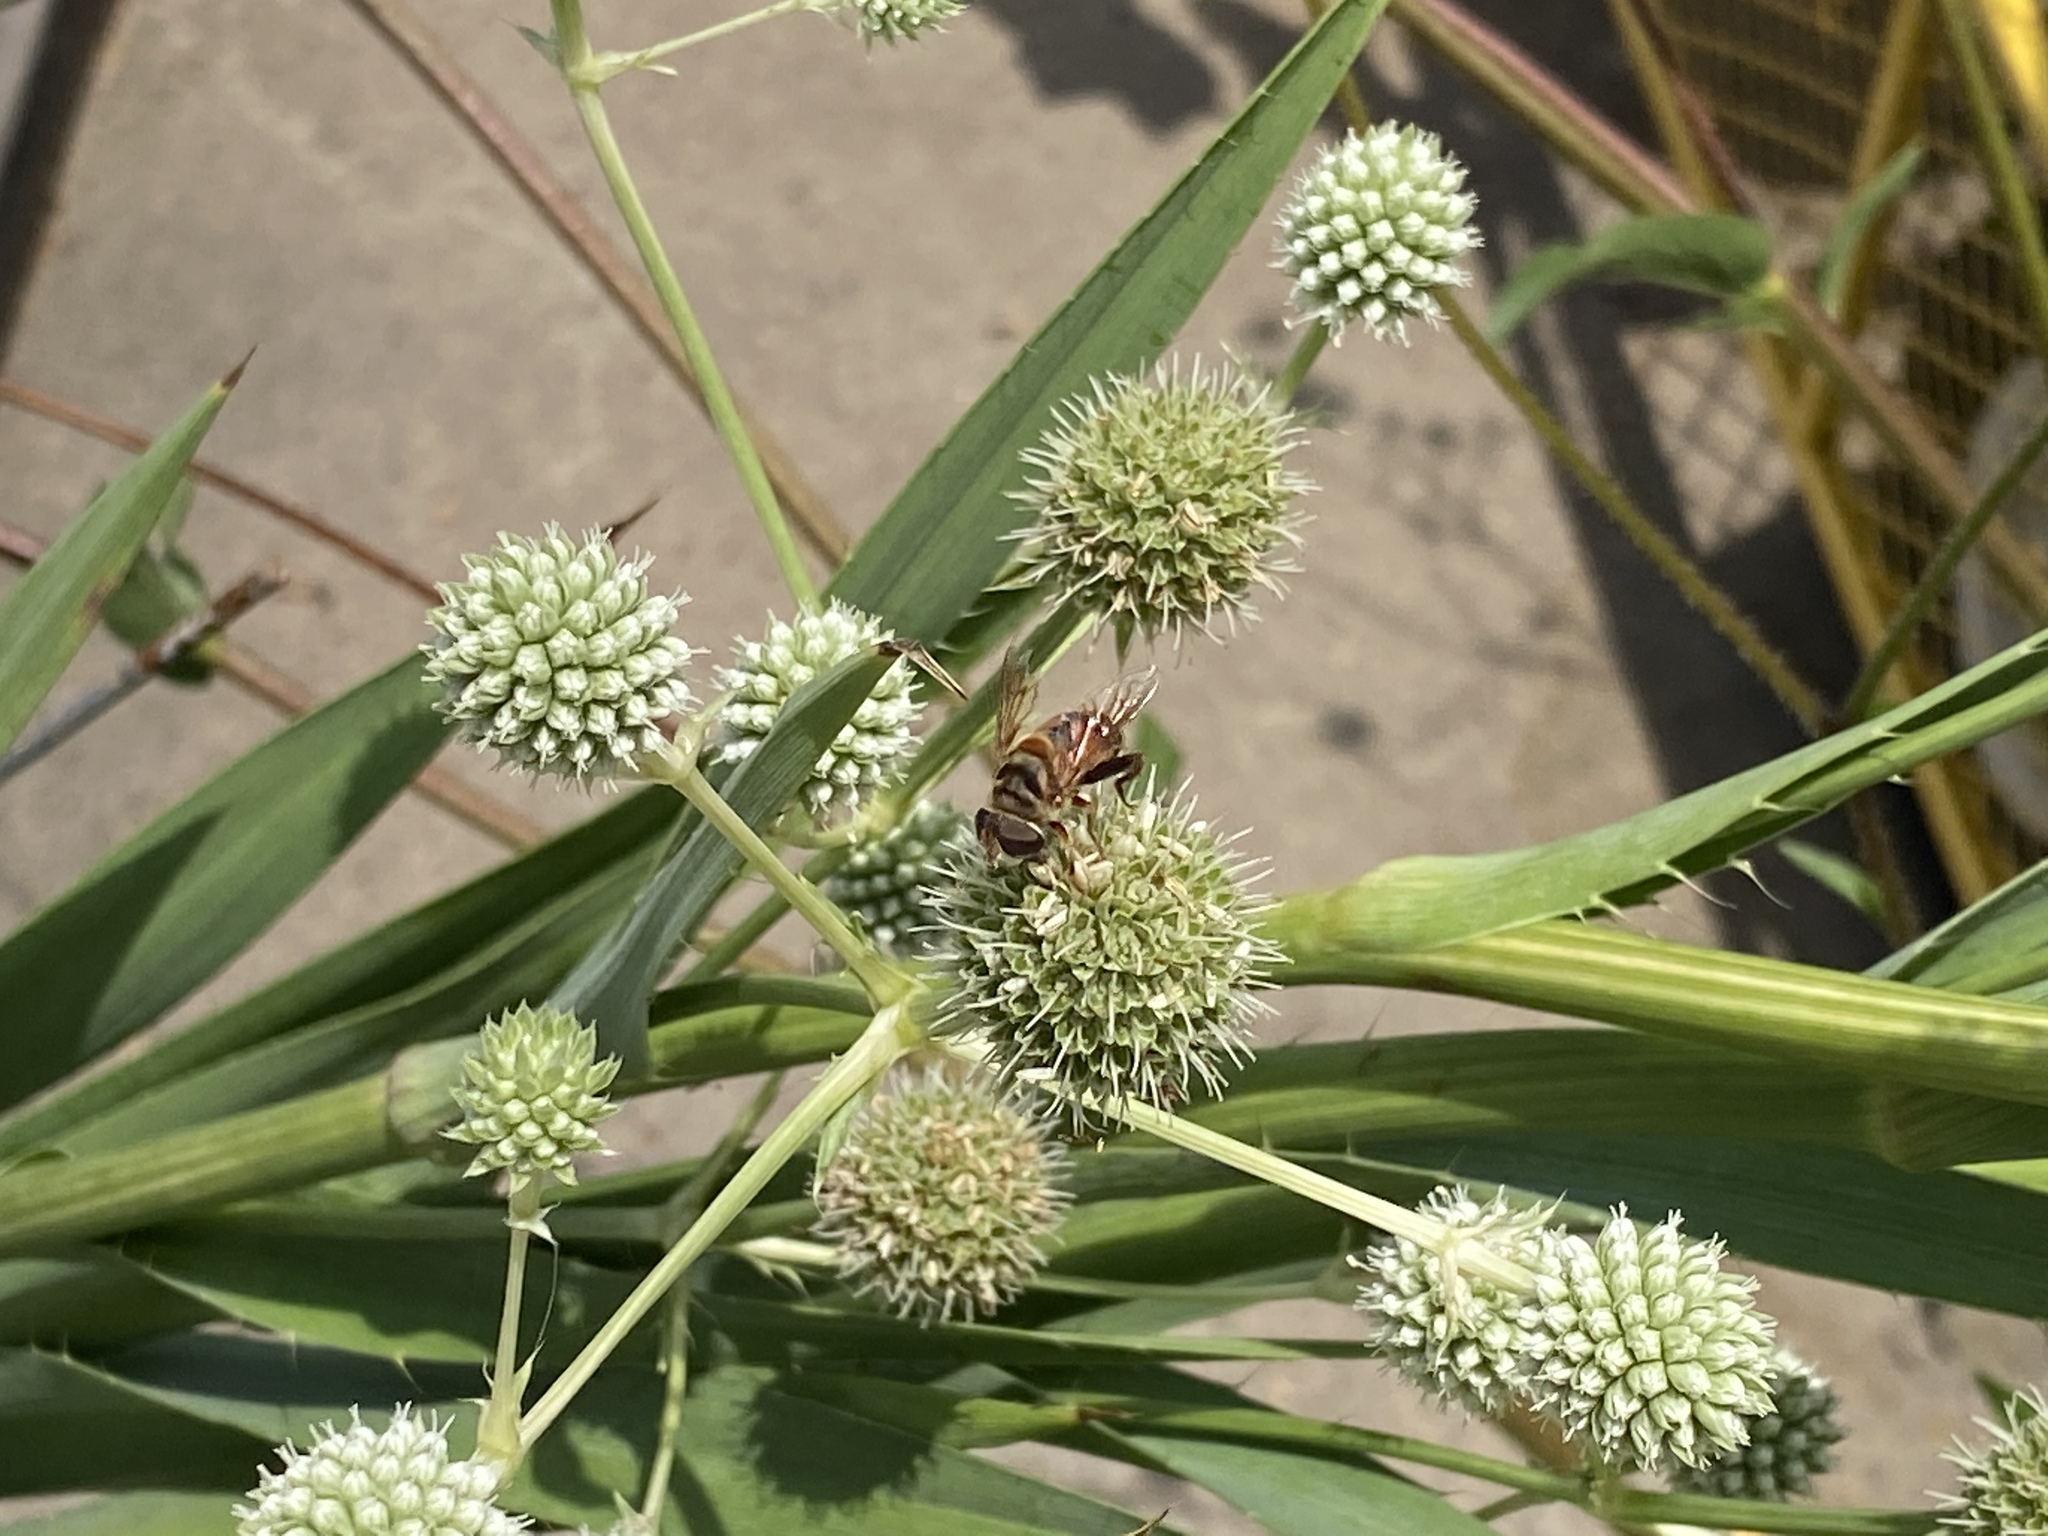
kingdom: Animalia
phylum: Arthropoda
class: Insecta
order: Diptera
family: Syrphidae
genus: Palpada
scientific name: Palpada vinetorum
